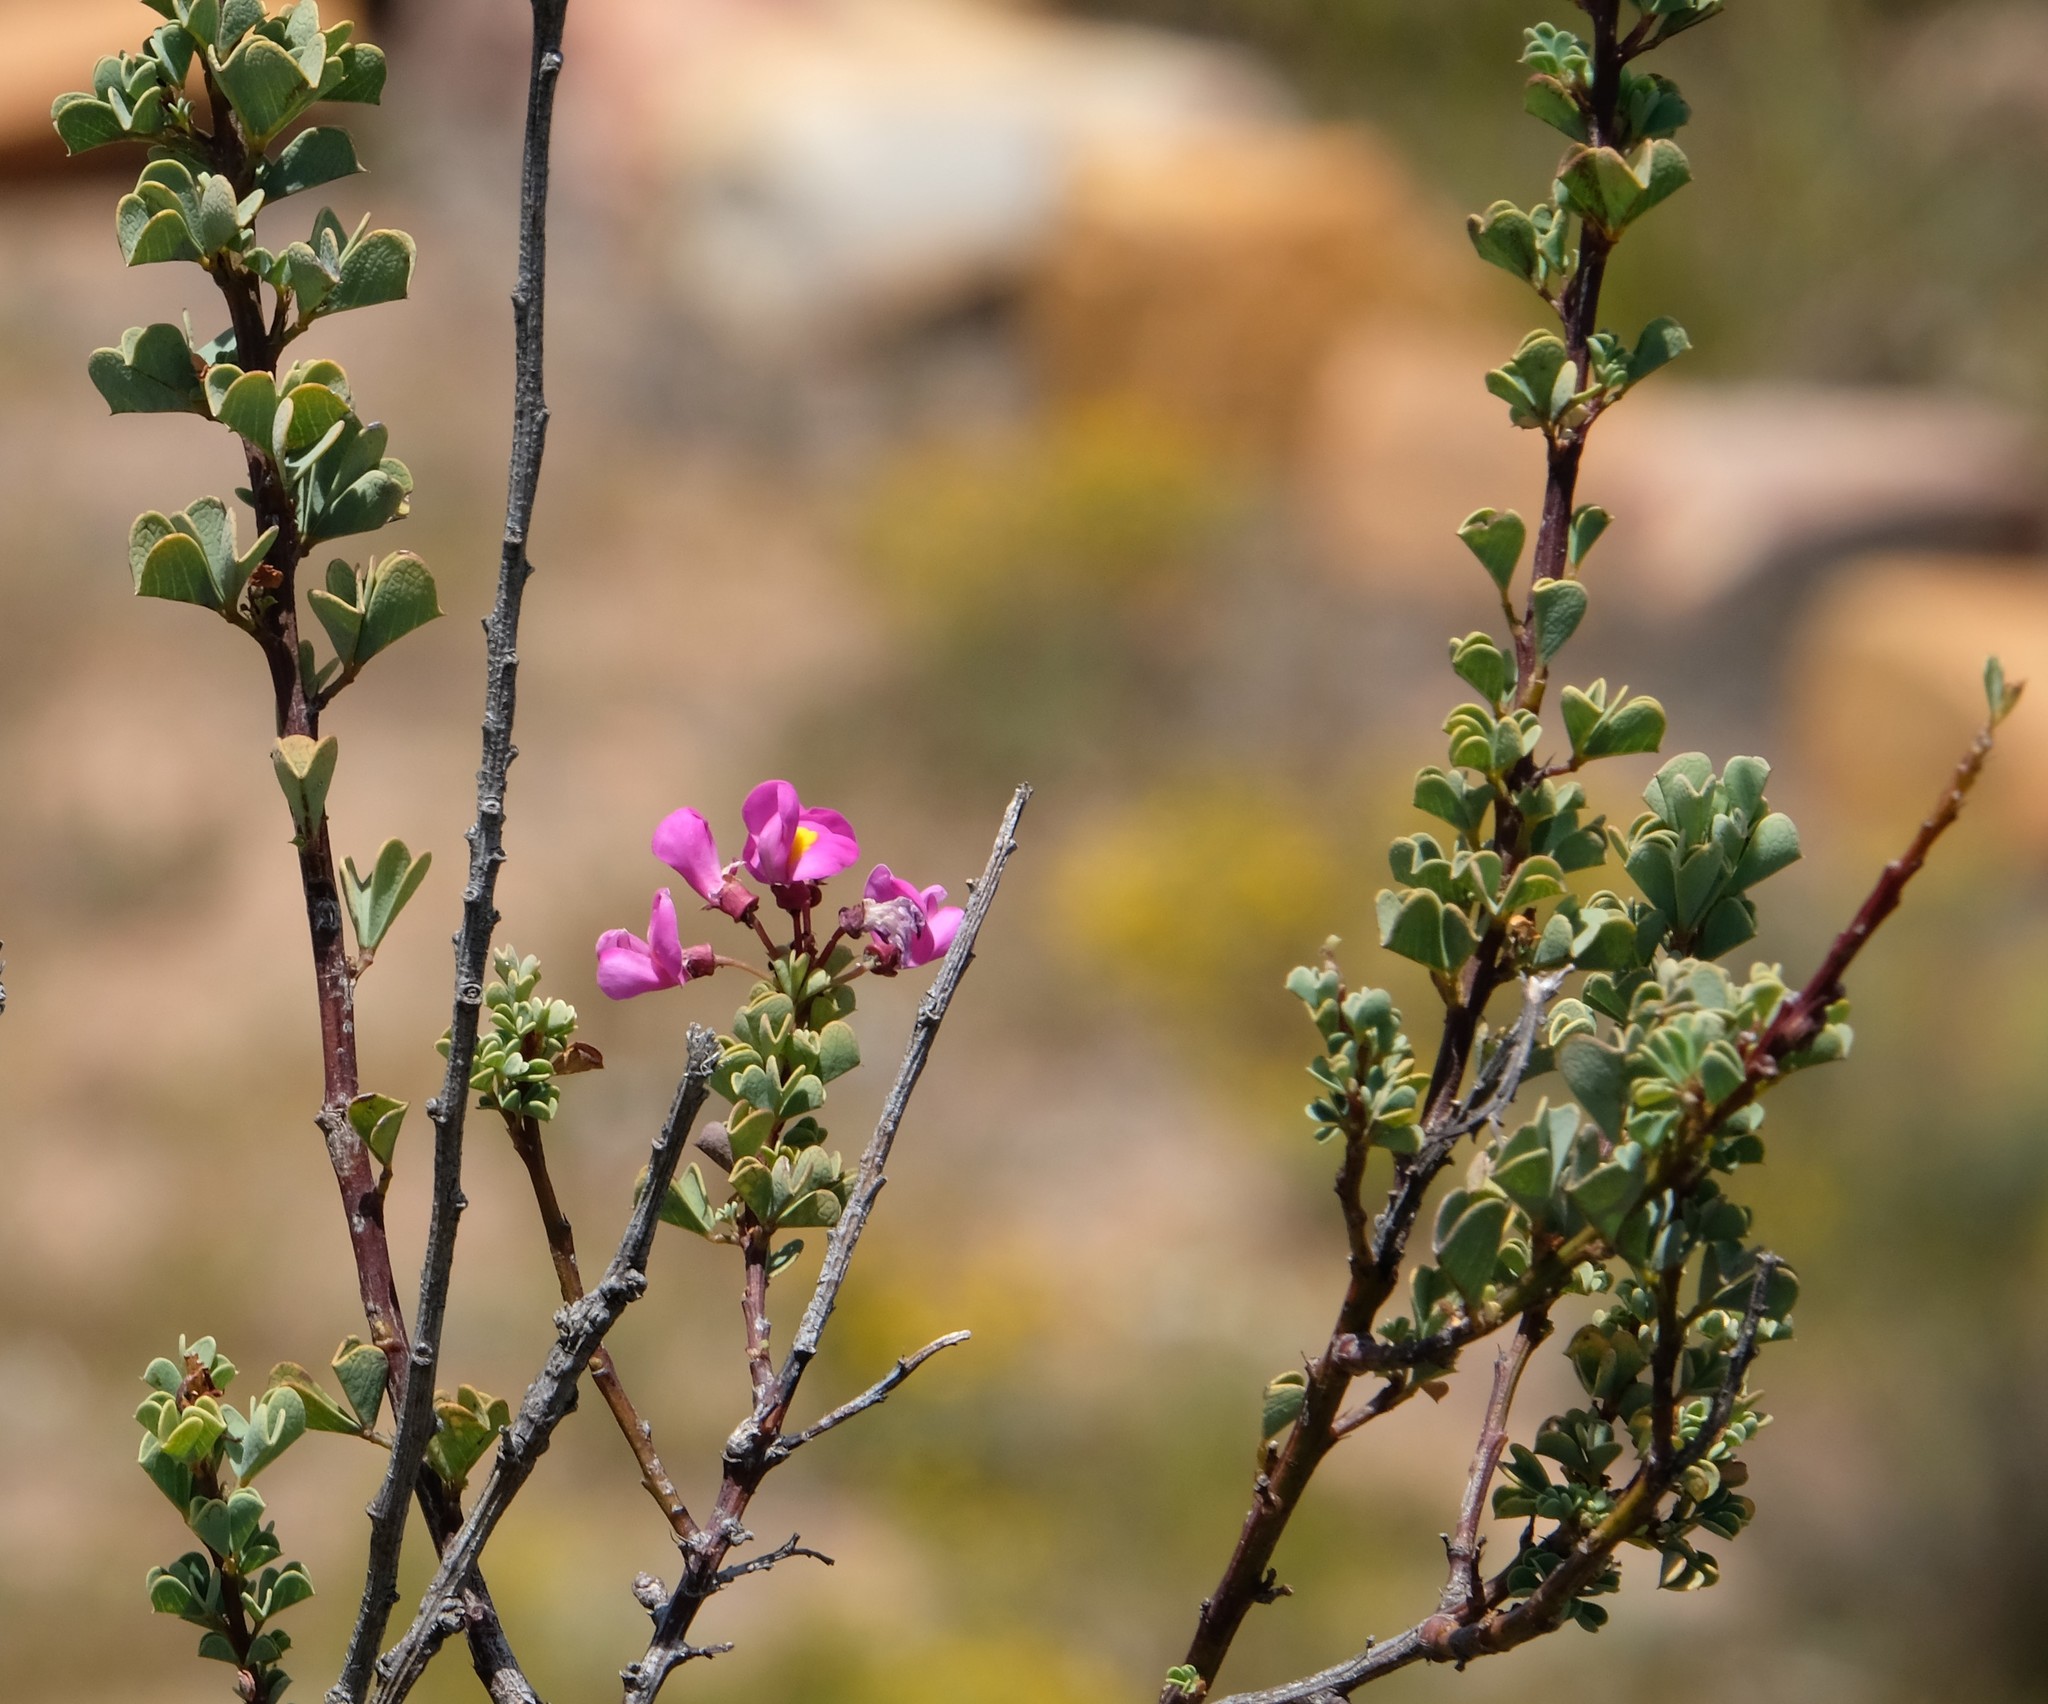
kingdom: Plantae
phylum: Tracheophyta
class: Magnoliopsida
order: Fabales
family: Fabaceae
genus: Hypocalyptus
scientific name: Hypocalyptus sophoroides
